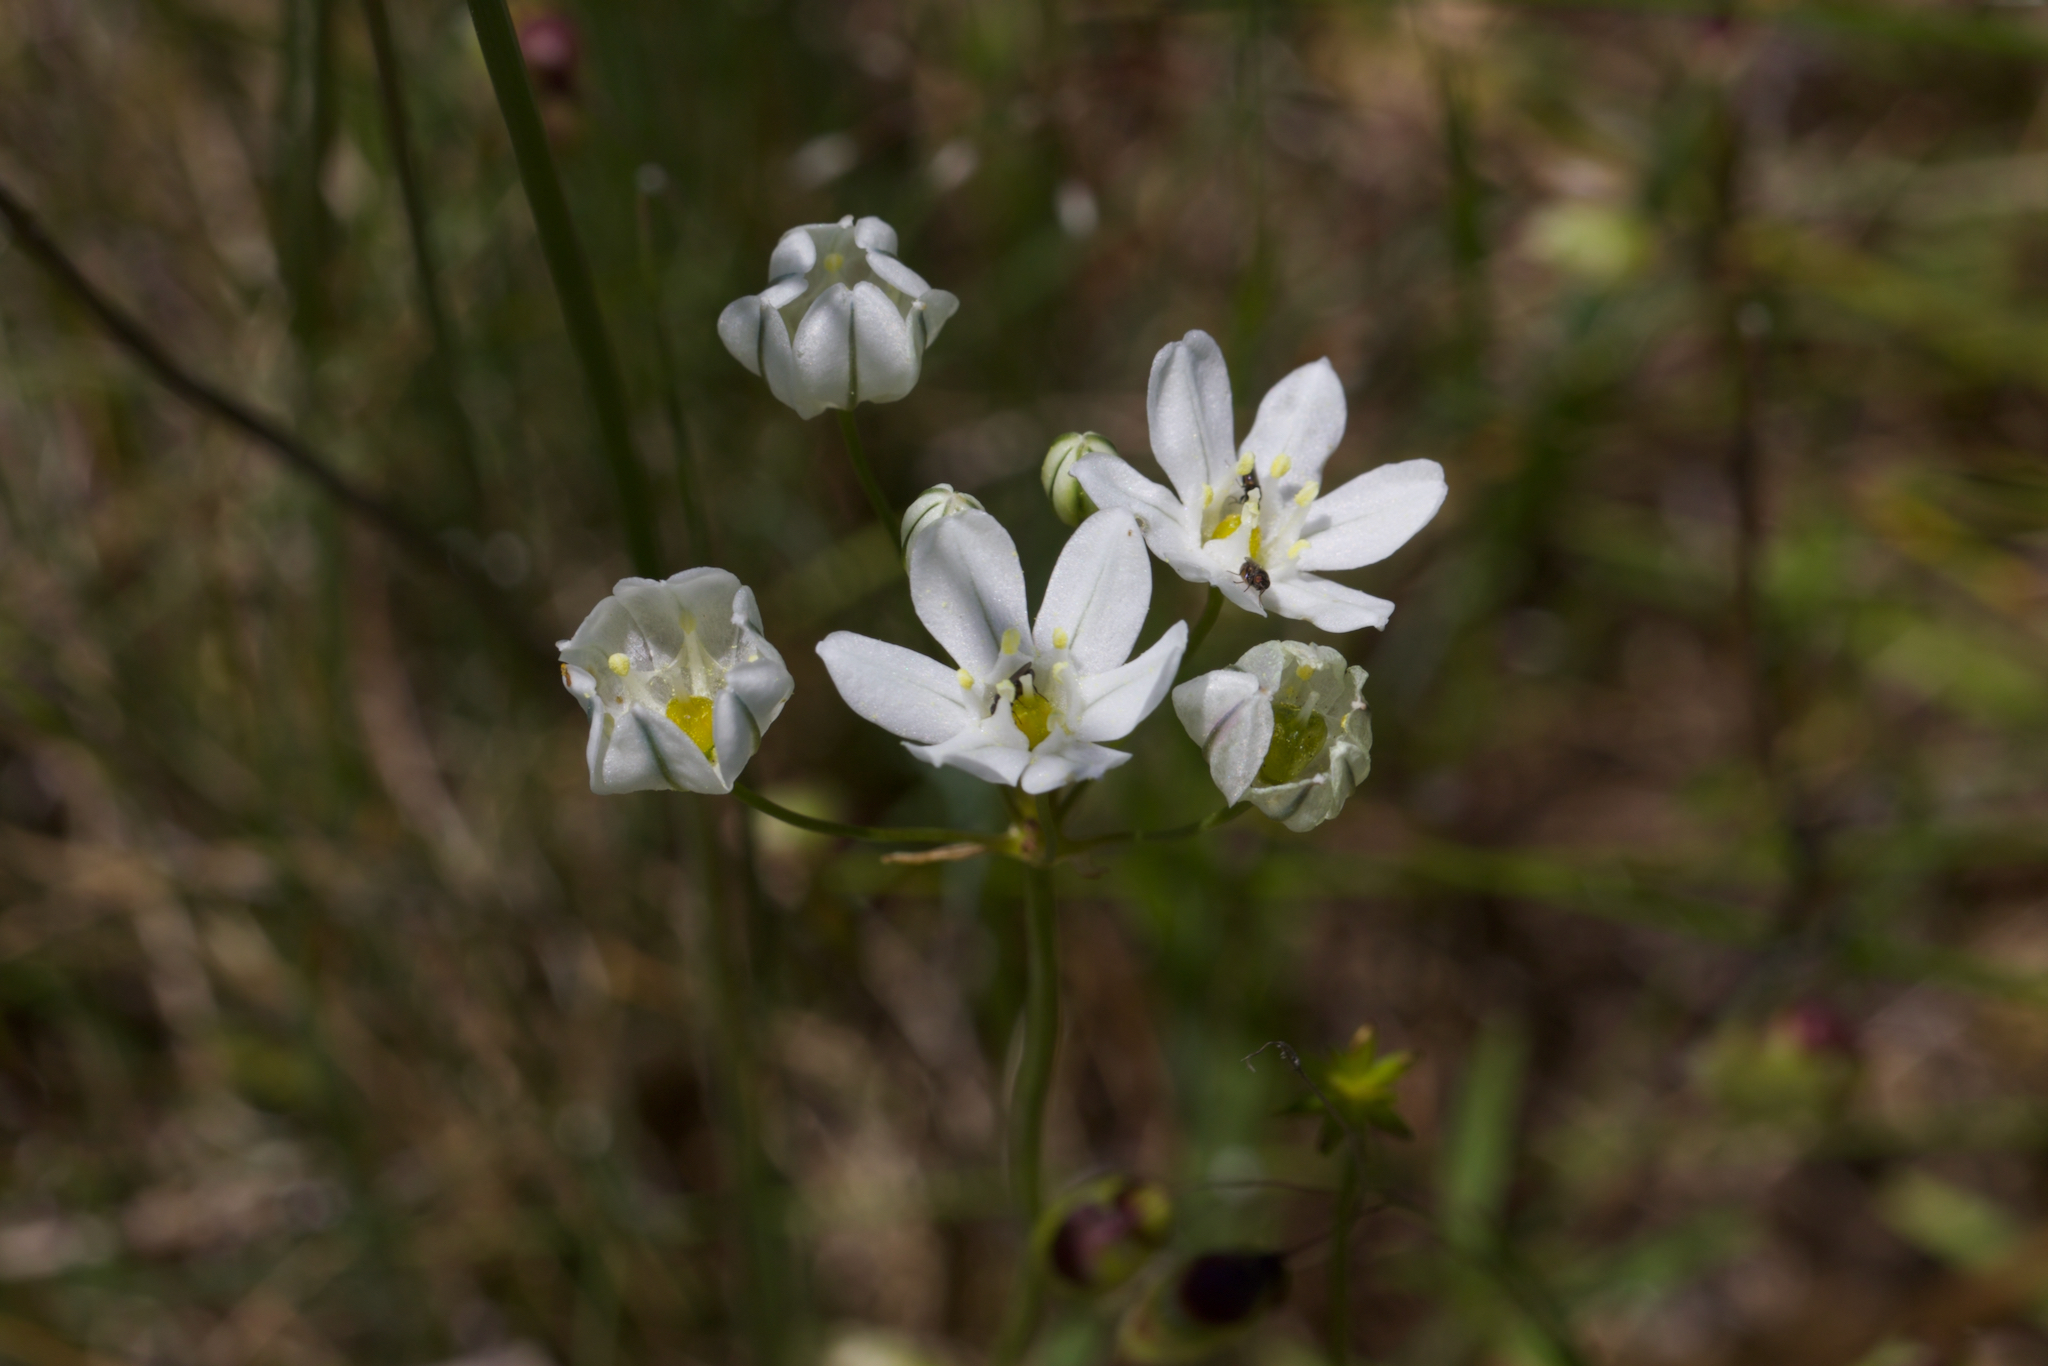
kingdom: Plantae
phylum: Tracheophyta
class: Liliopsida
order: Asparagales
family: Asparagaceae
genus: Triteleia
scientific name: Triteleia hyacinthina
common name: White brodiaea
